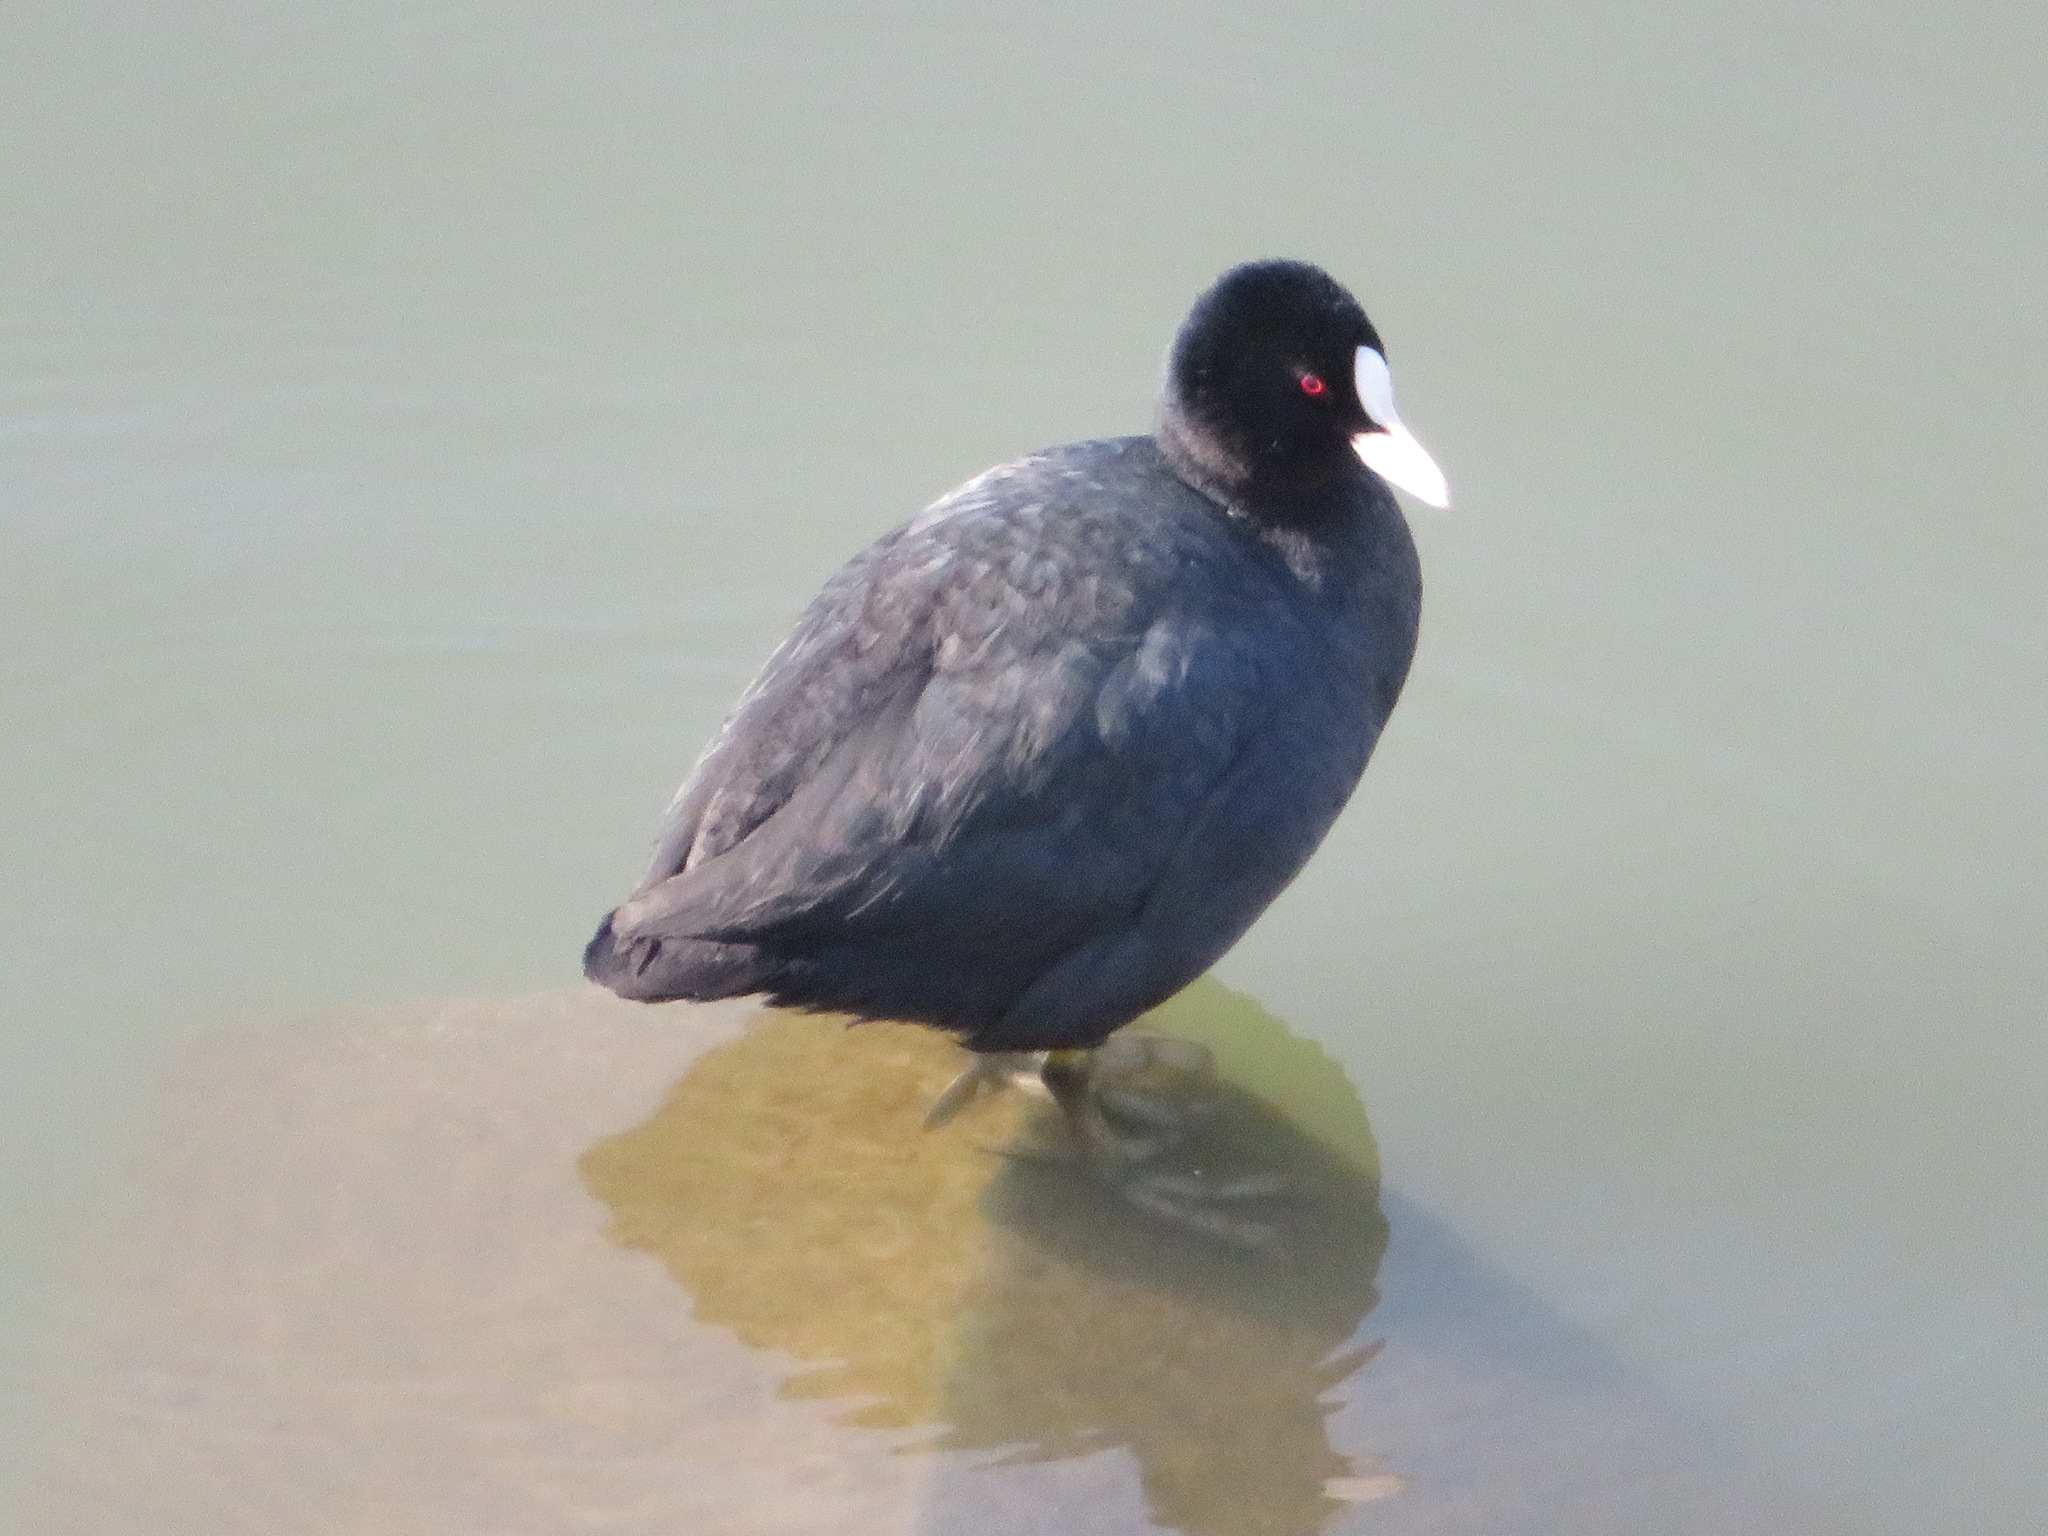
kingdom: Animalia
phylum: Chordata
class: Aves
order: Gruiformes
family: Rallidae
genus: Fulica
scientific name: Fulica atra
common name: Eurasian coot
